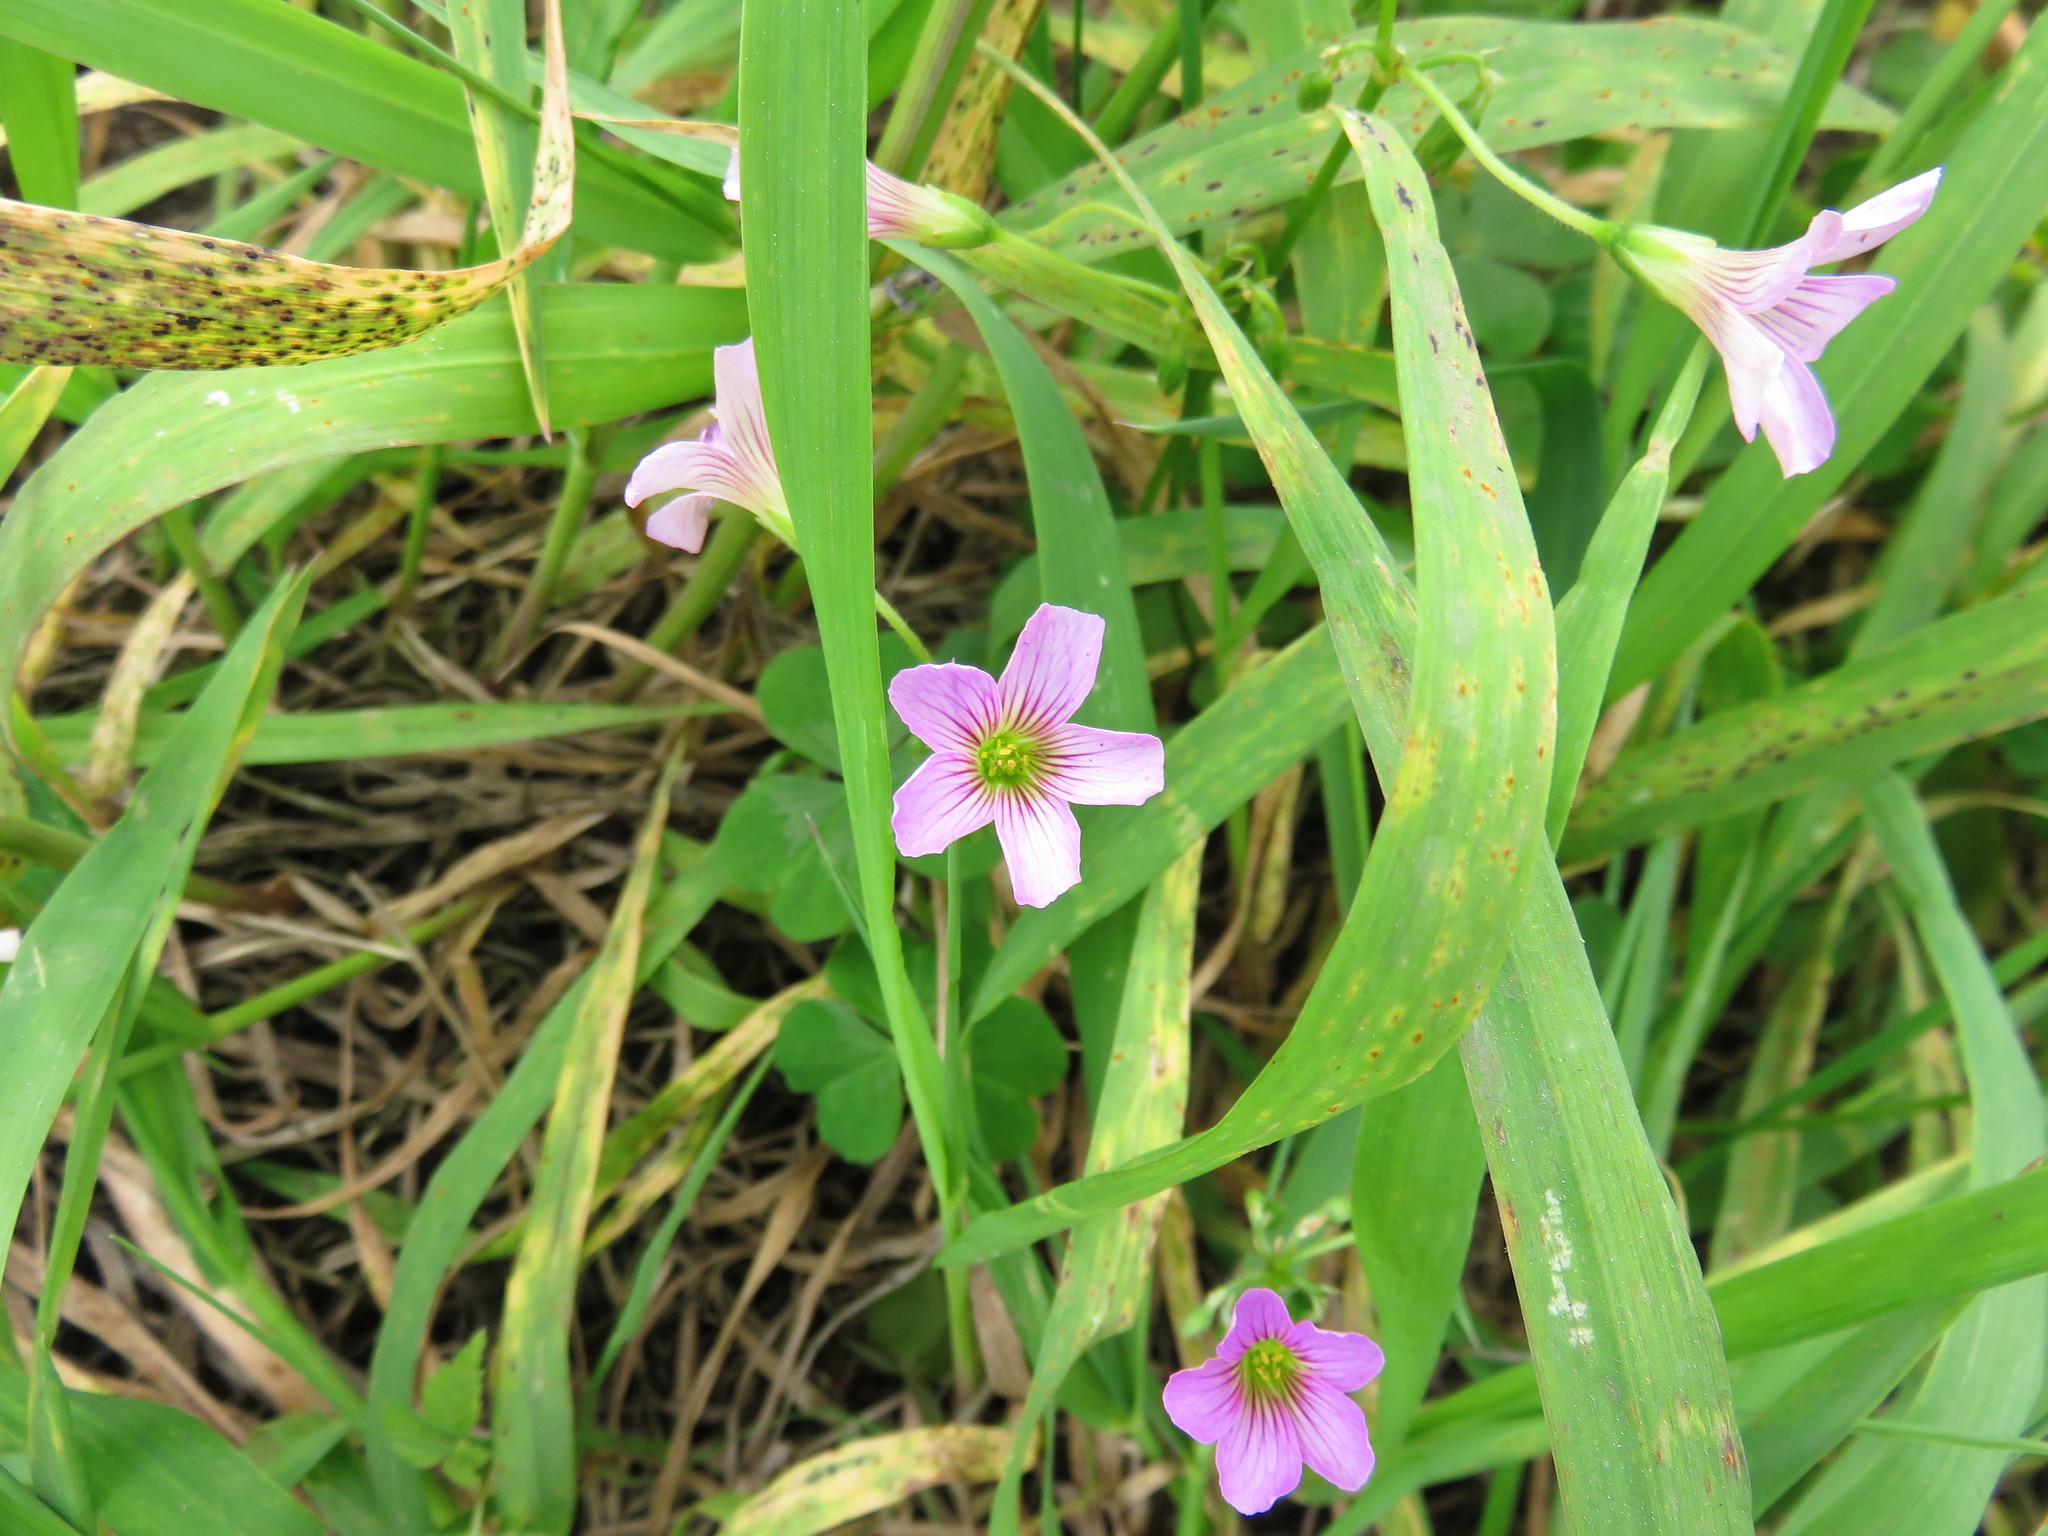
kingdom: Plantae
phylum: Tracheophyta
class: Magnoliopsida
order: Oxalidales
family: Oxalidaceae
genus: Oxalis
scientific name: Oxalis debilis
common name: Large-flowered pink-sorrel
